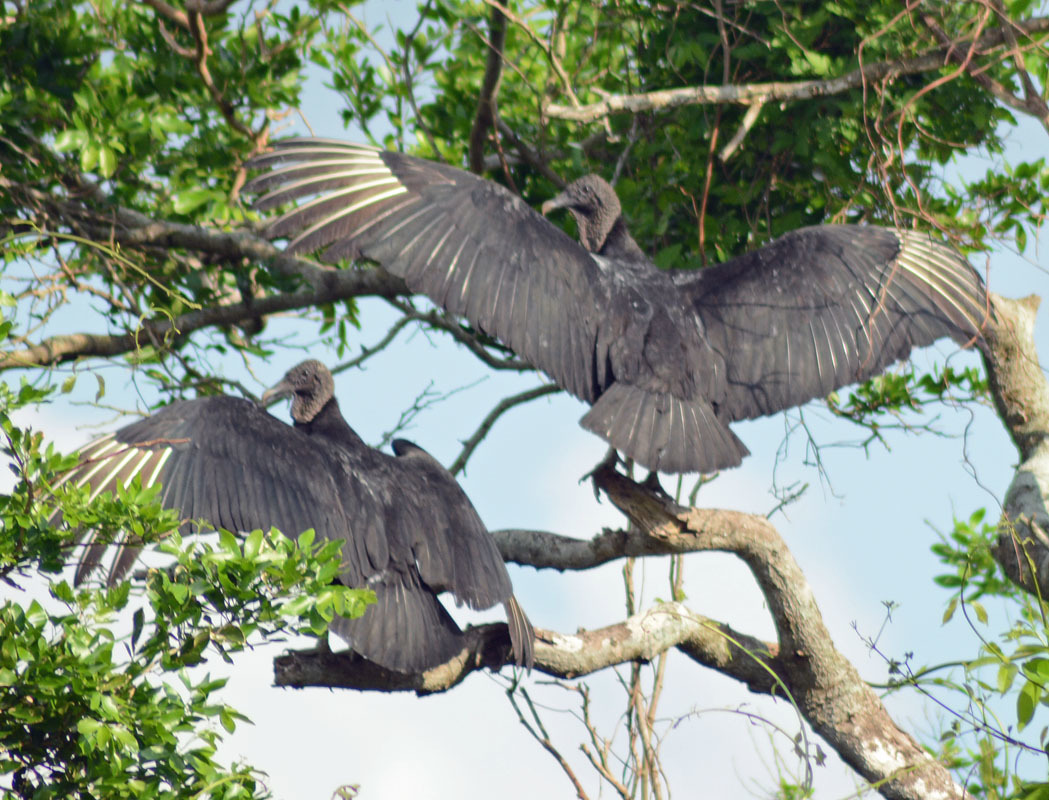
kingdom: Animalia
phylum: Chordata
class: Aves
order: Accipitriformes
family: Cathartidae
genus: Coragyps
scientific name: Coragyps atratus
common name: Black vulture
